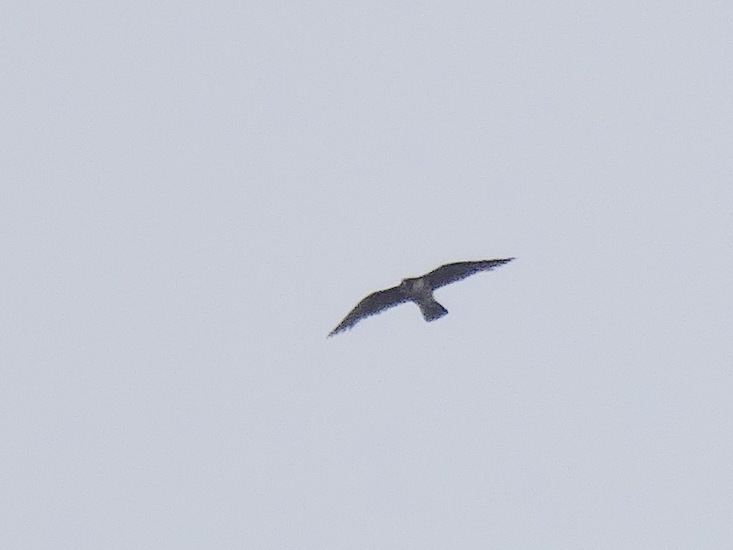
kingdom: Animalia
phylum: Chordata
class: Aves
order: Falconiformes
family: Falconidae
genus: Falco
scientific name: Falco peregrinus
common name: Peregrine falcon
